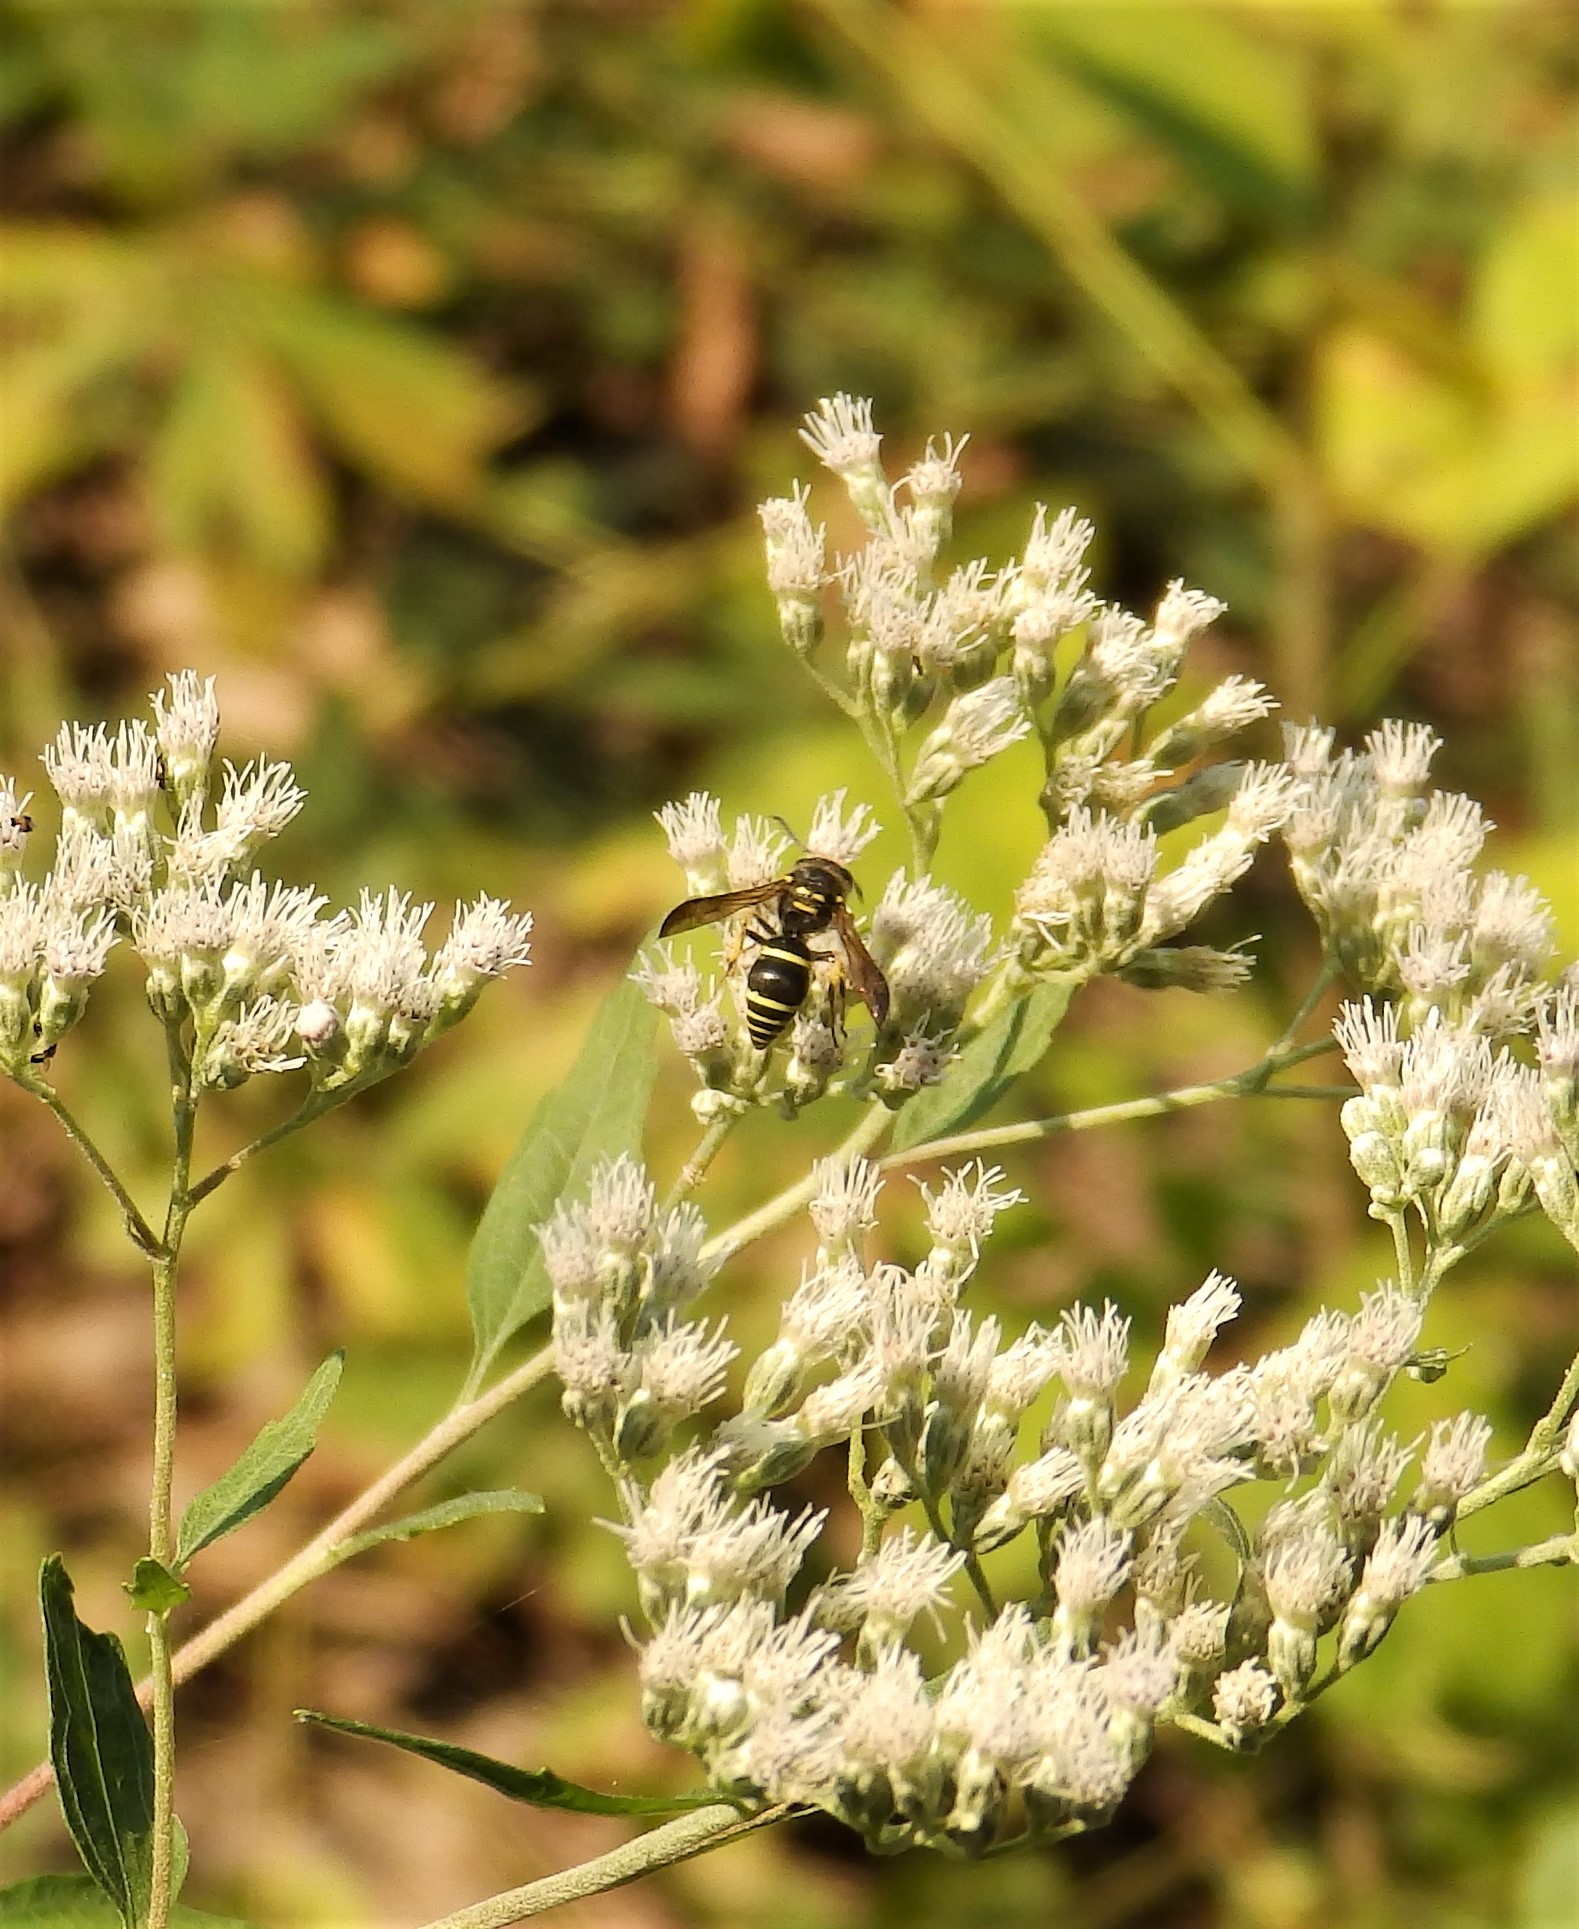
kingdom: Animalia
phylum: Arthropoda
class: Insecta
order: Hymenoptera
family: Vespidae
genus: Ancistrocerus
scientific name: Ancistrocerus
